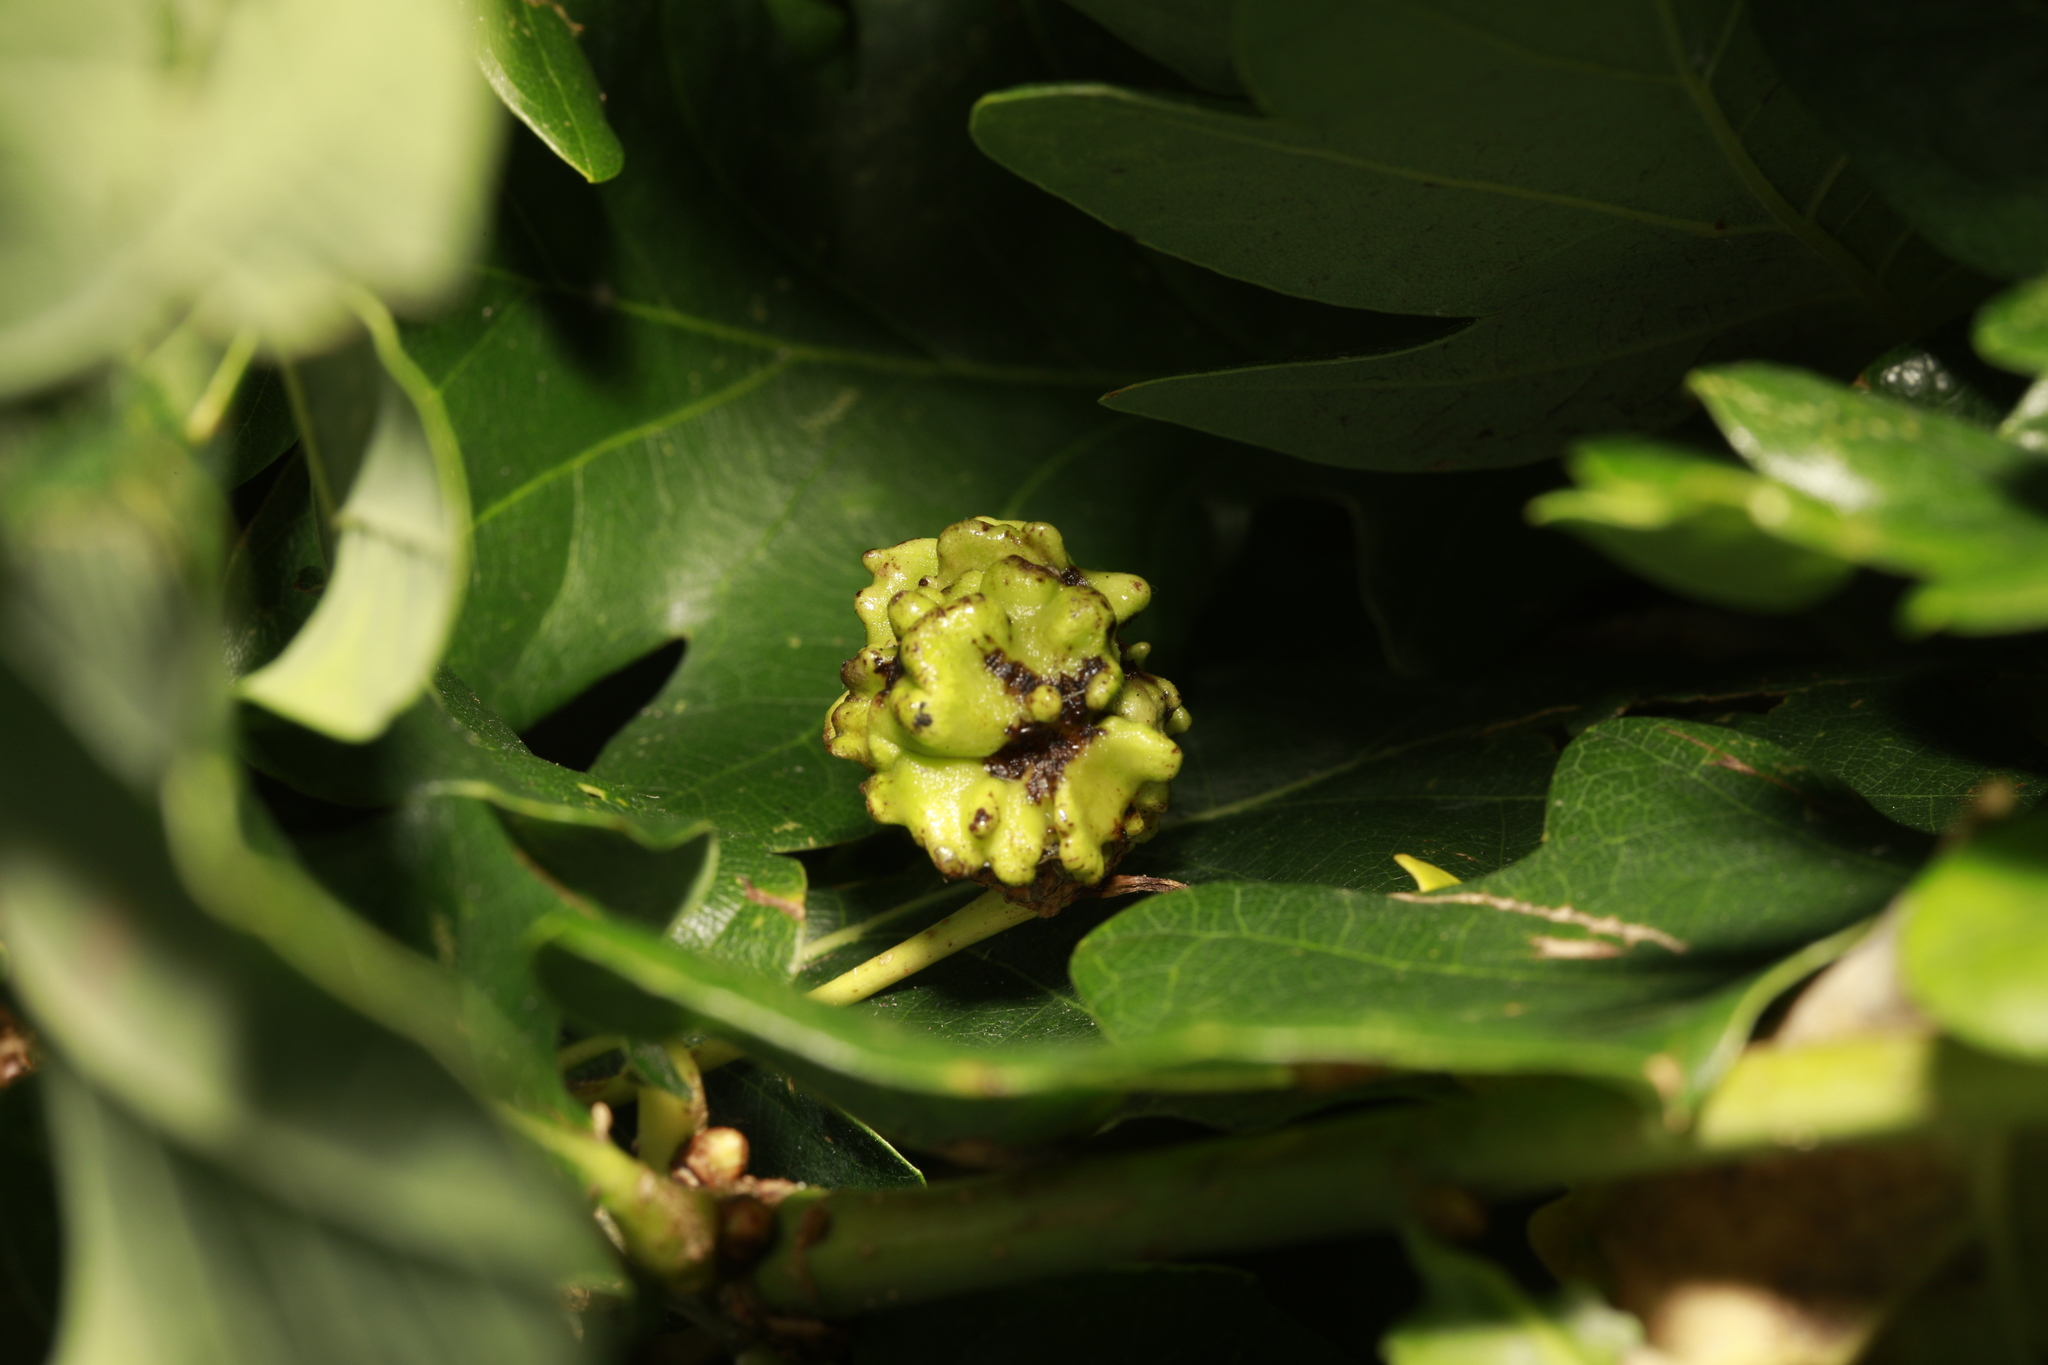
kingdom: Animalia
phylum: Arthropoda
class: Insecta
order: Hymenoptera
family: Cynipidae
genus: Andricus
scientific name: Andricus quercuscalicis
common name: Knopper gall
